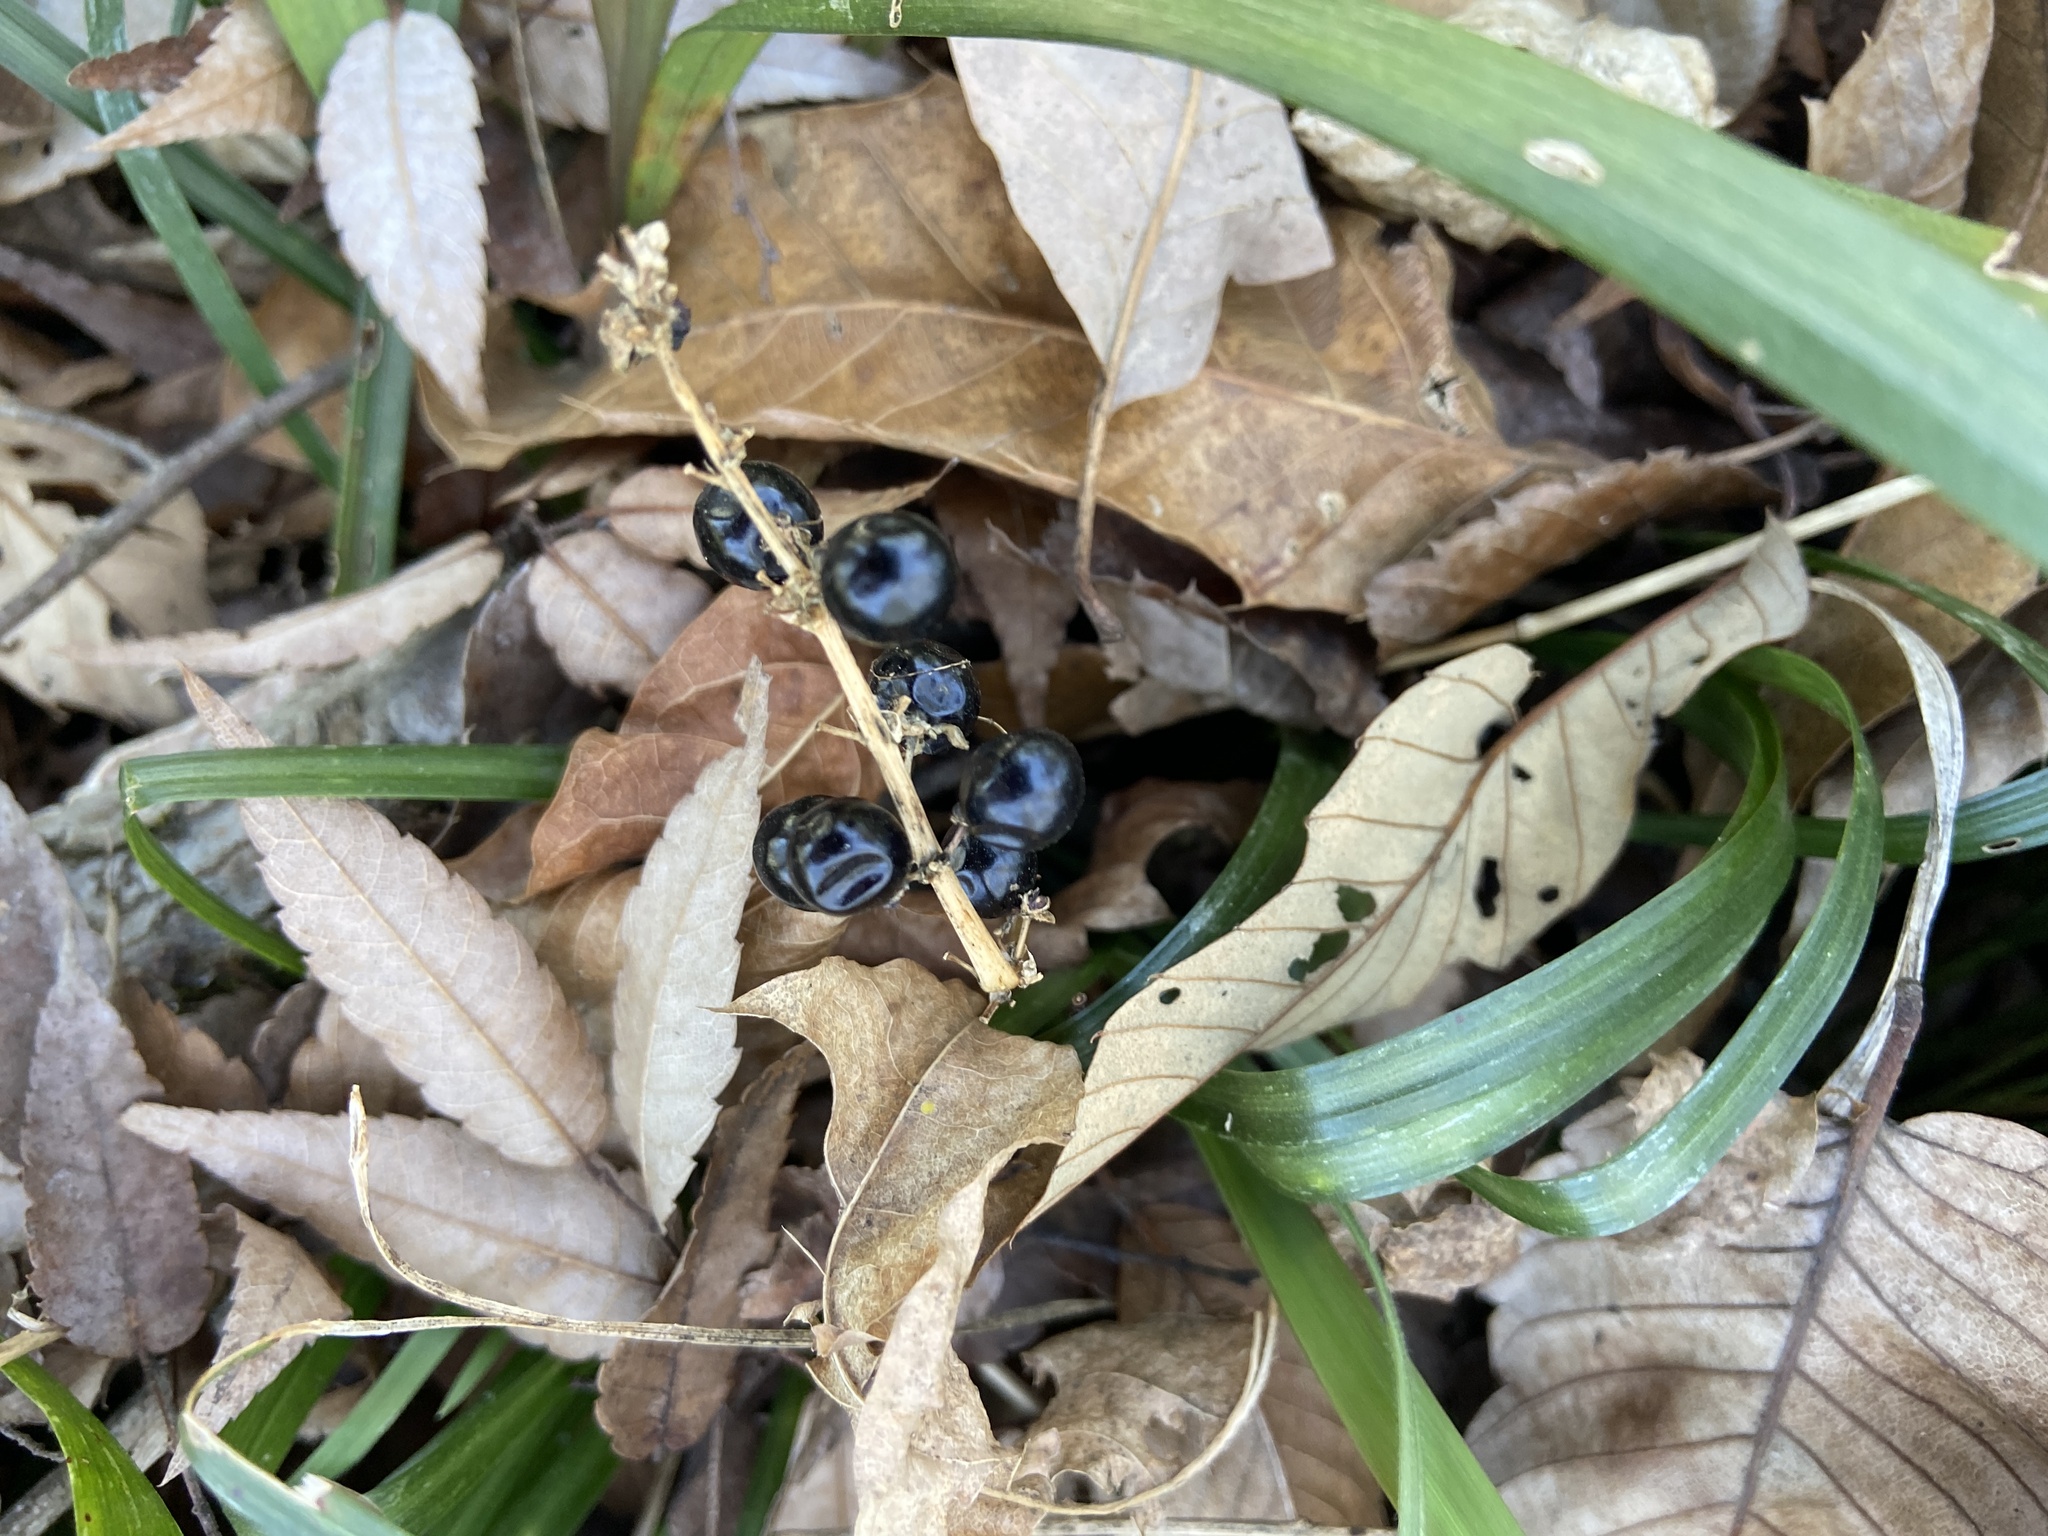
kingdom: Plantae
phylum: Tracheophyta
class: Liliopsida
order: Asparagales
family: Asparagaceae
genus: Liriope
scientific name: Liriope muscari
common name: Big blue lilyturf
